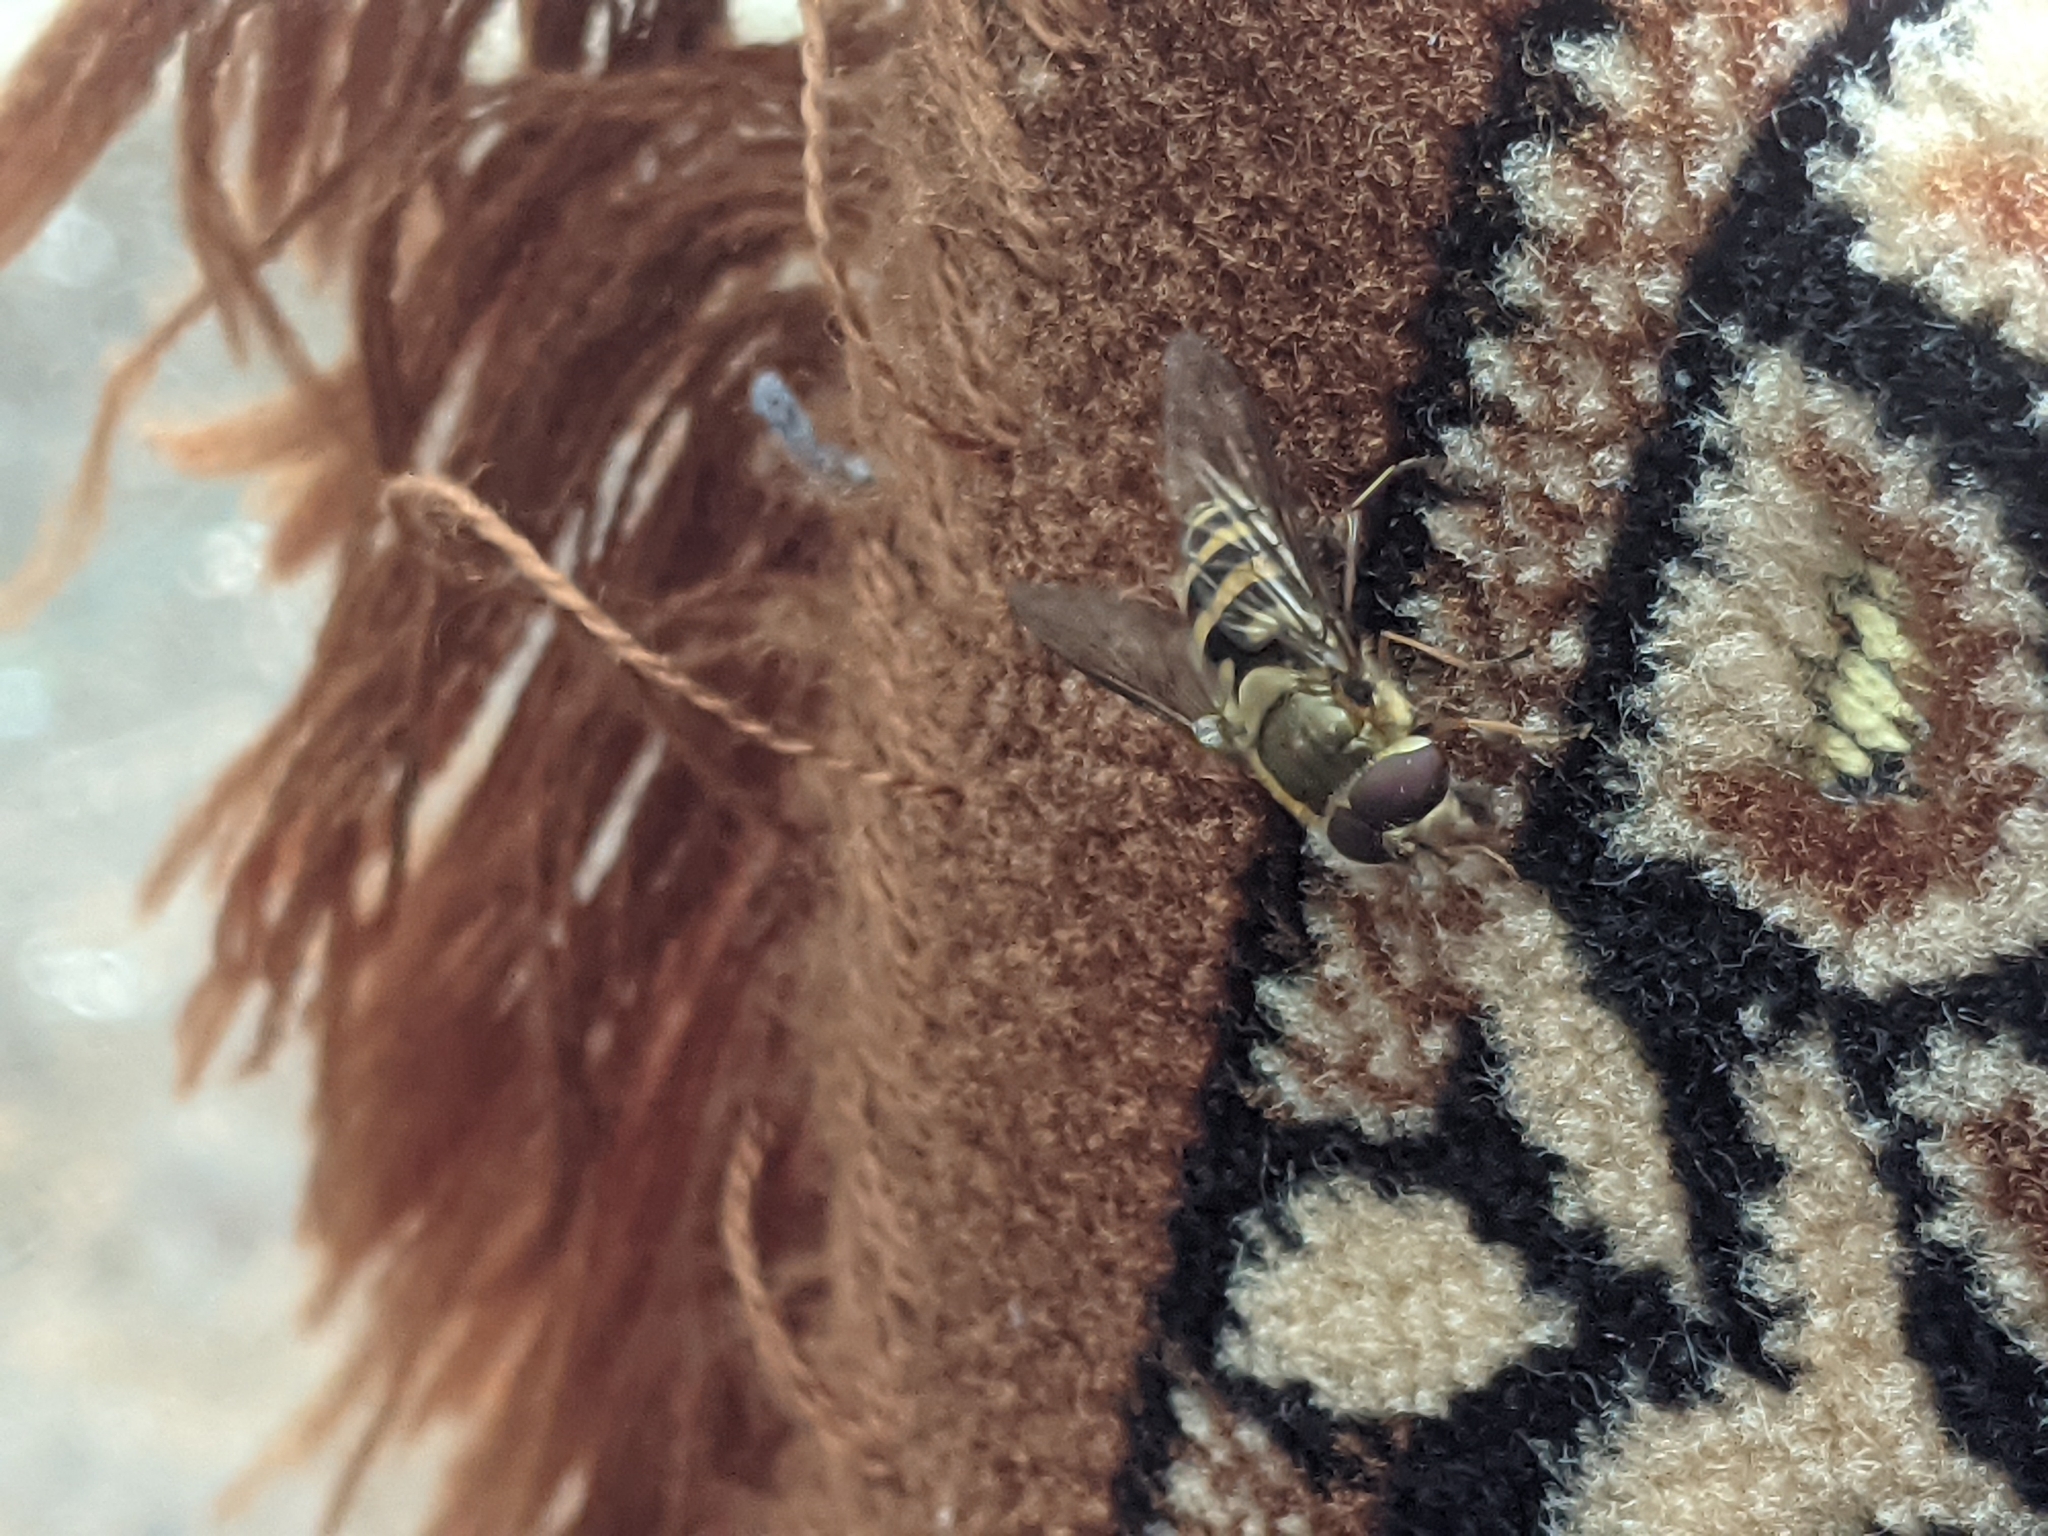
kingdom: Animalia
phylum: Arthropoda
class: Insecta
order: Diptera
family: Syrphidae
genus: Syrphus
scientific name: Syrphus ribesii
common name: Common flower fly
